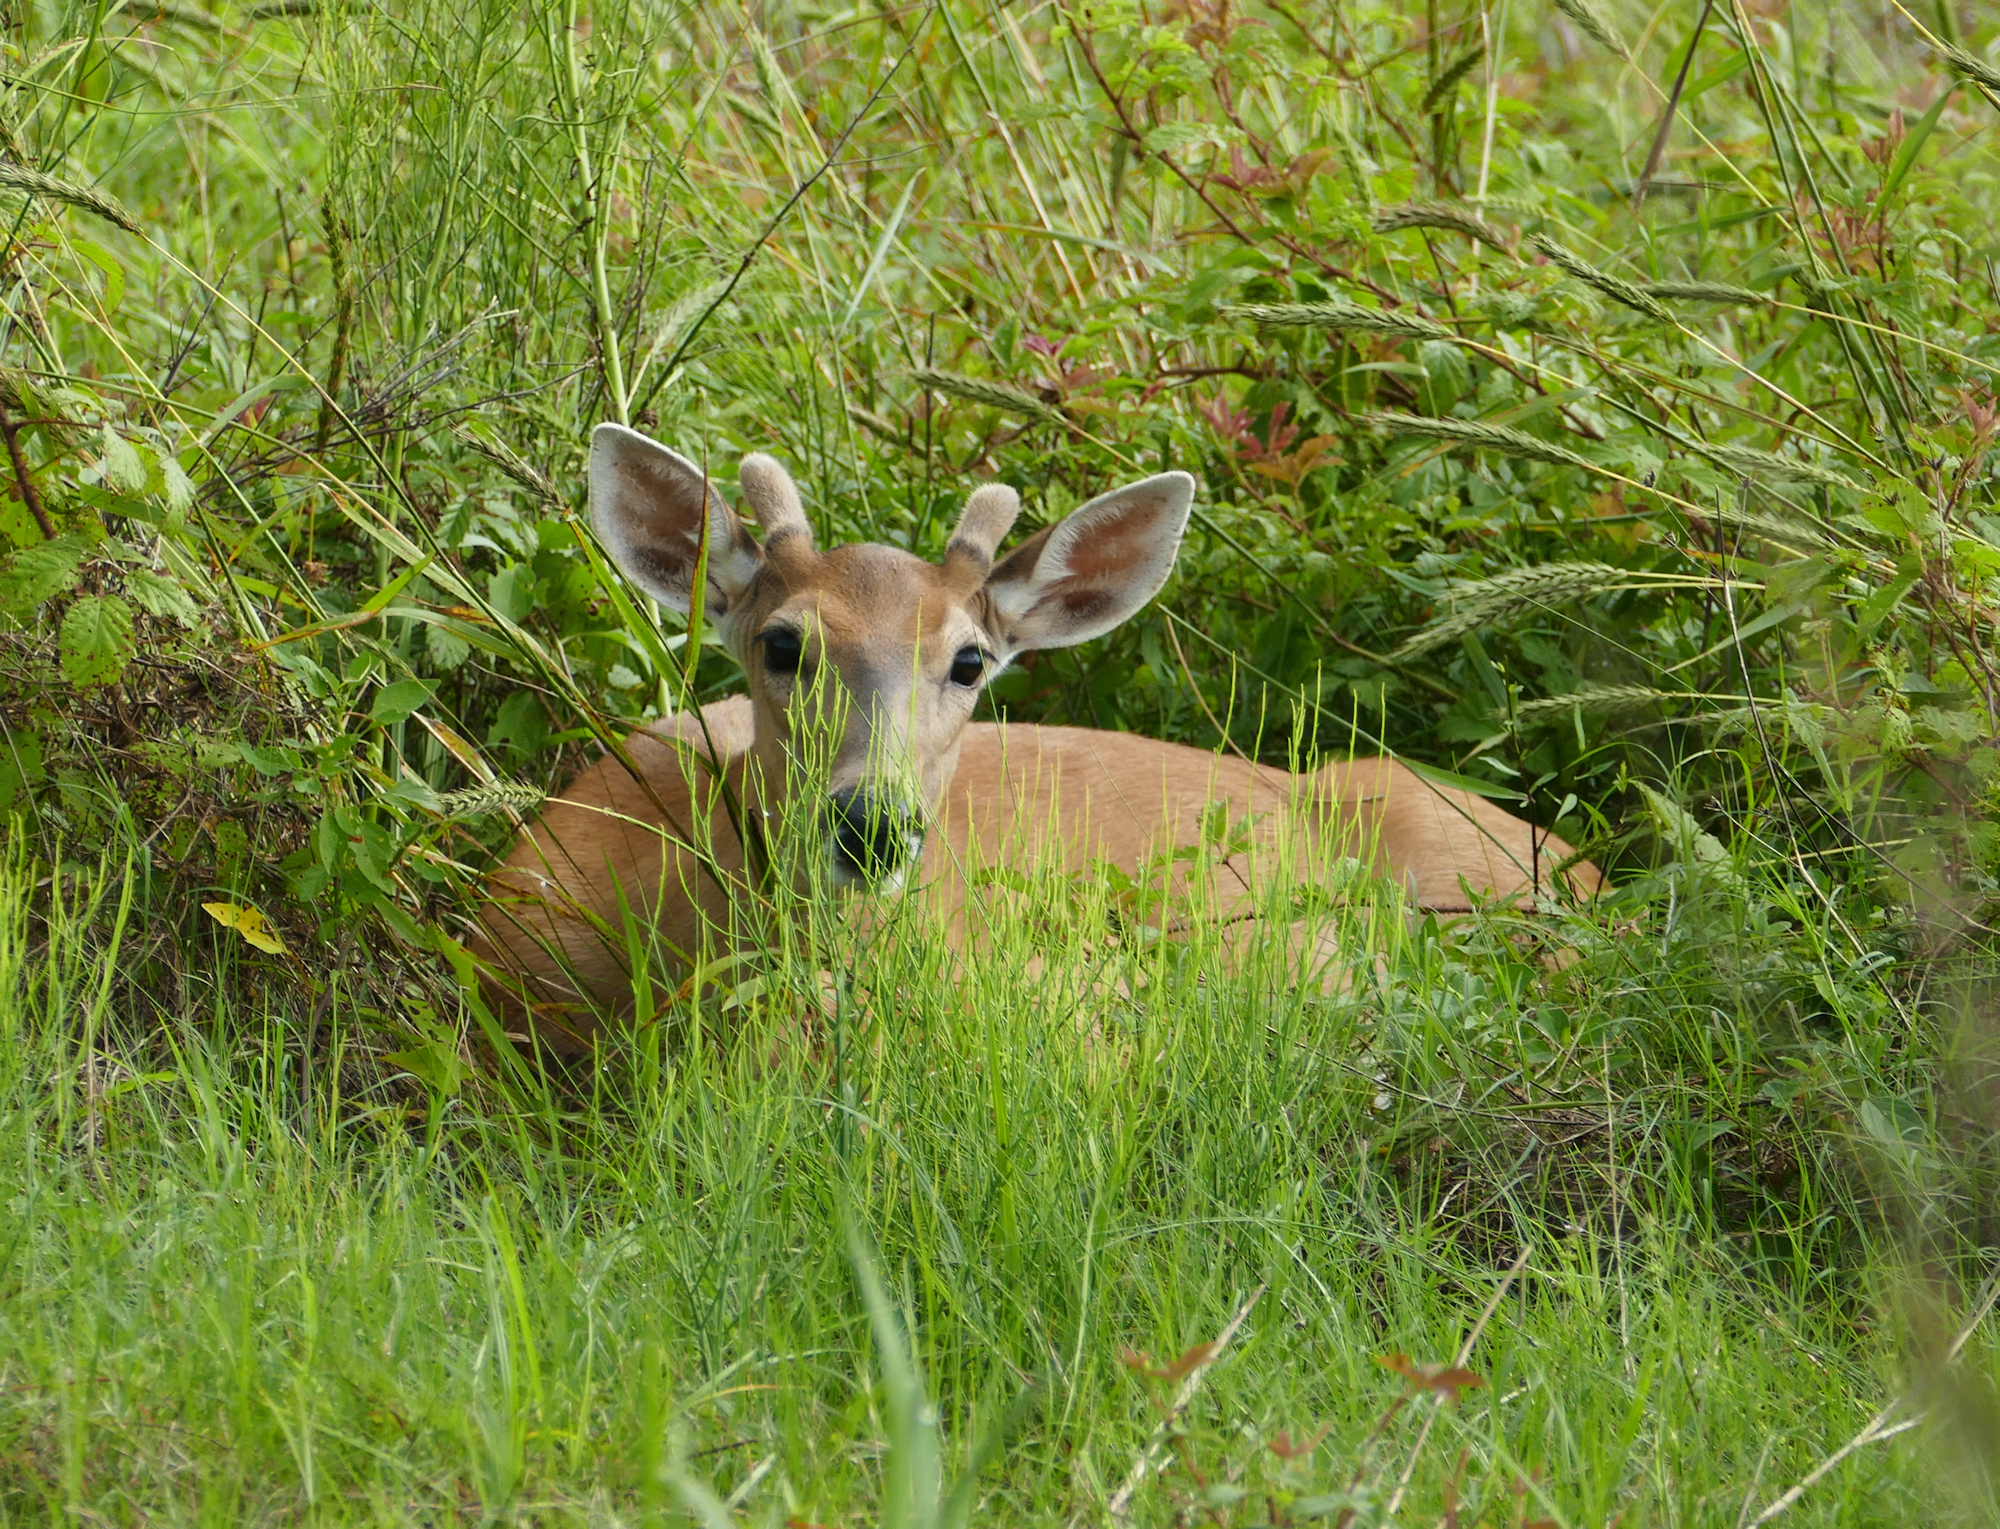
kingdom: Animalia
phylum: Chordata
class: Mammalia
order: Artiodactyla
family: Cervidae
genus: Odocoileus
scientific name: Odocoileus virginianus
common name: White-tailed deer
